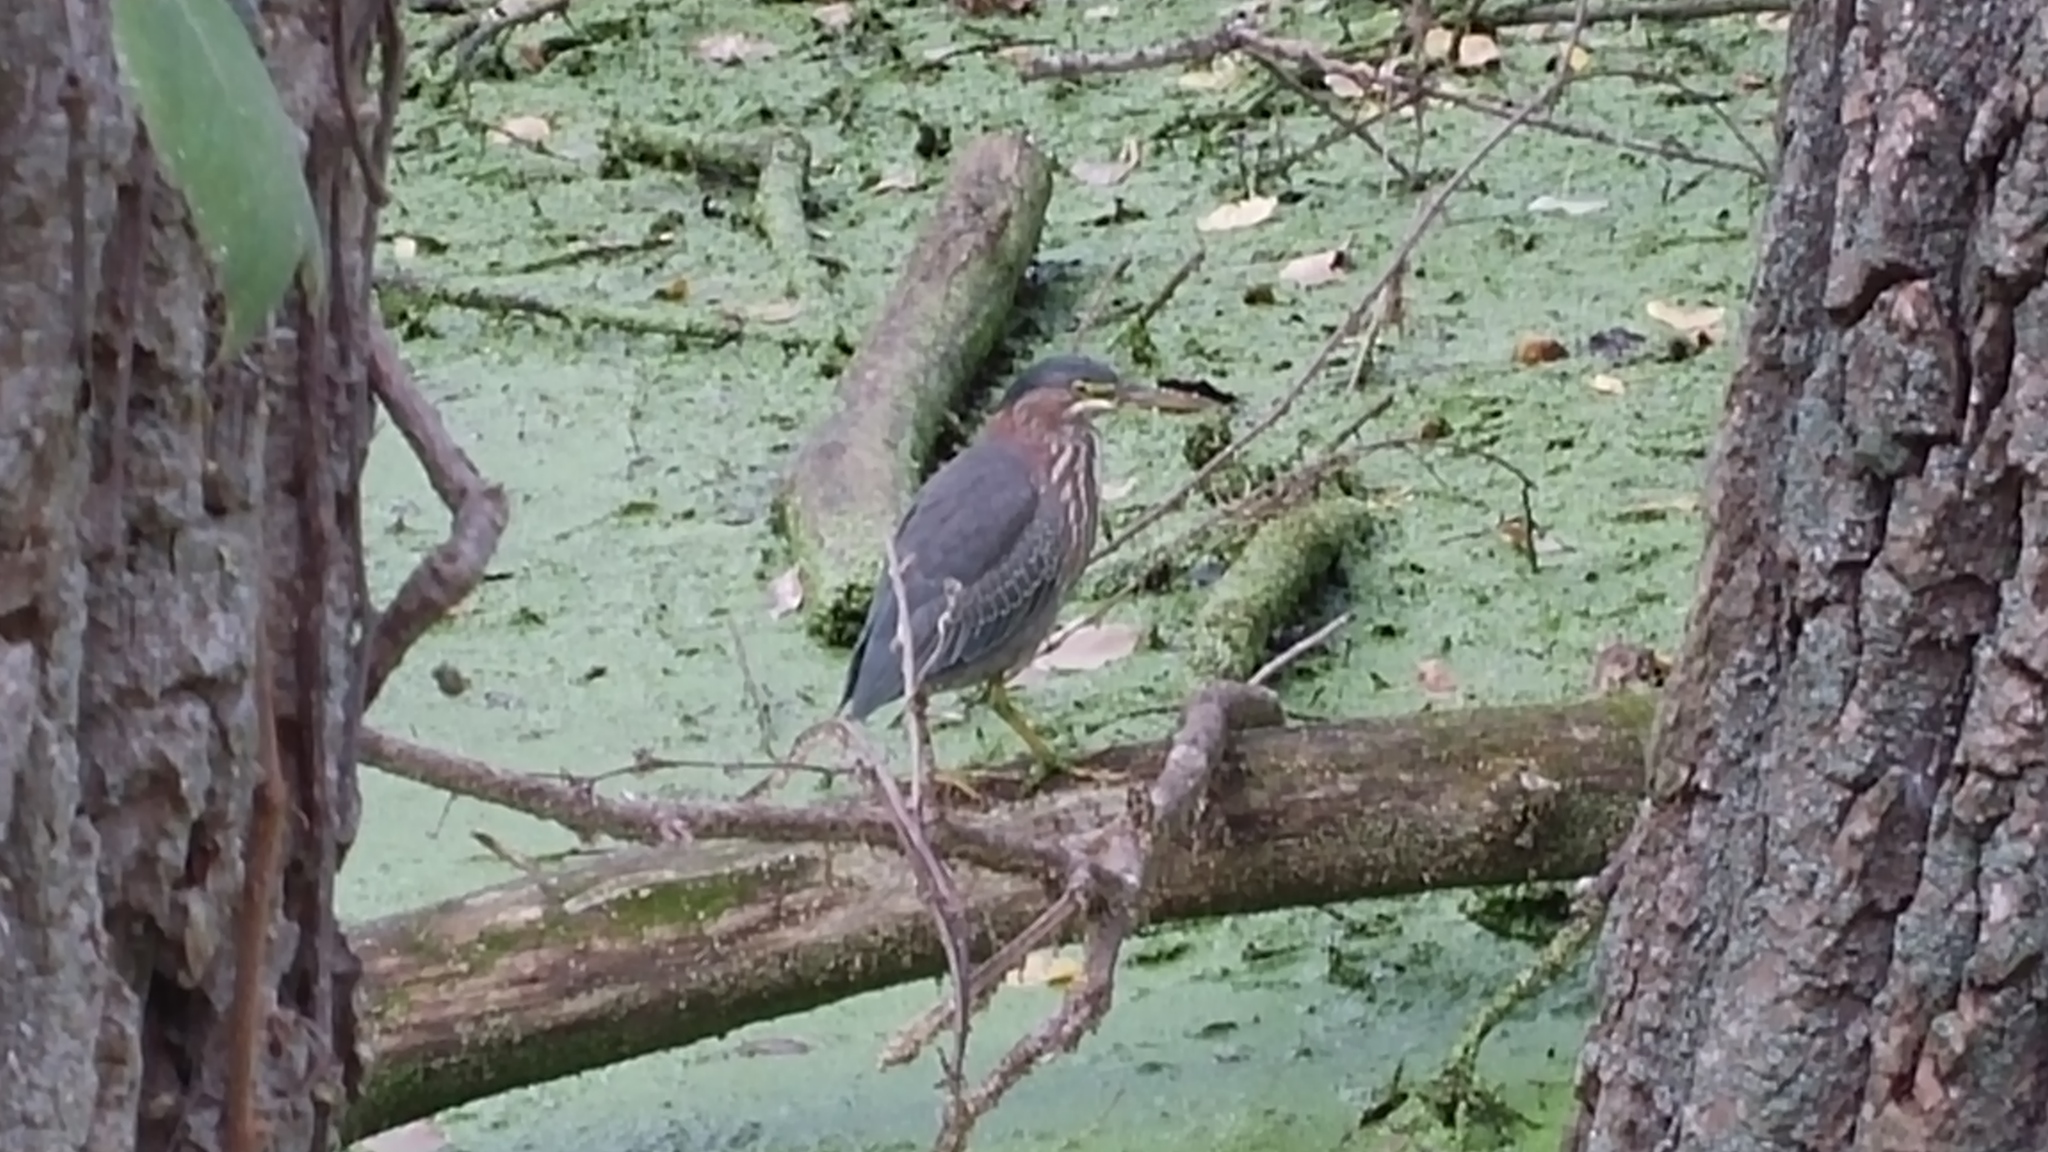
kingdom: Animalia
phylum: Chordata
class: Aves
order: Pelecaniformes
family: Ardeidae
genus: Butorides
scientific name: Butorides virescens
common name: Green heron
